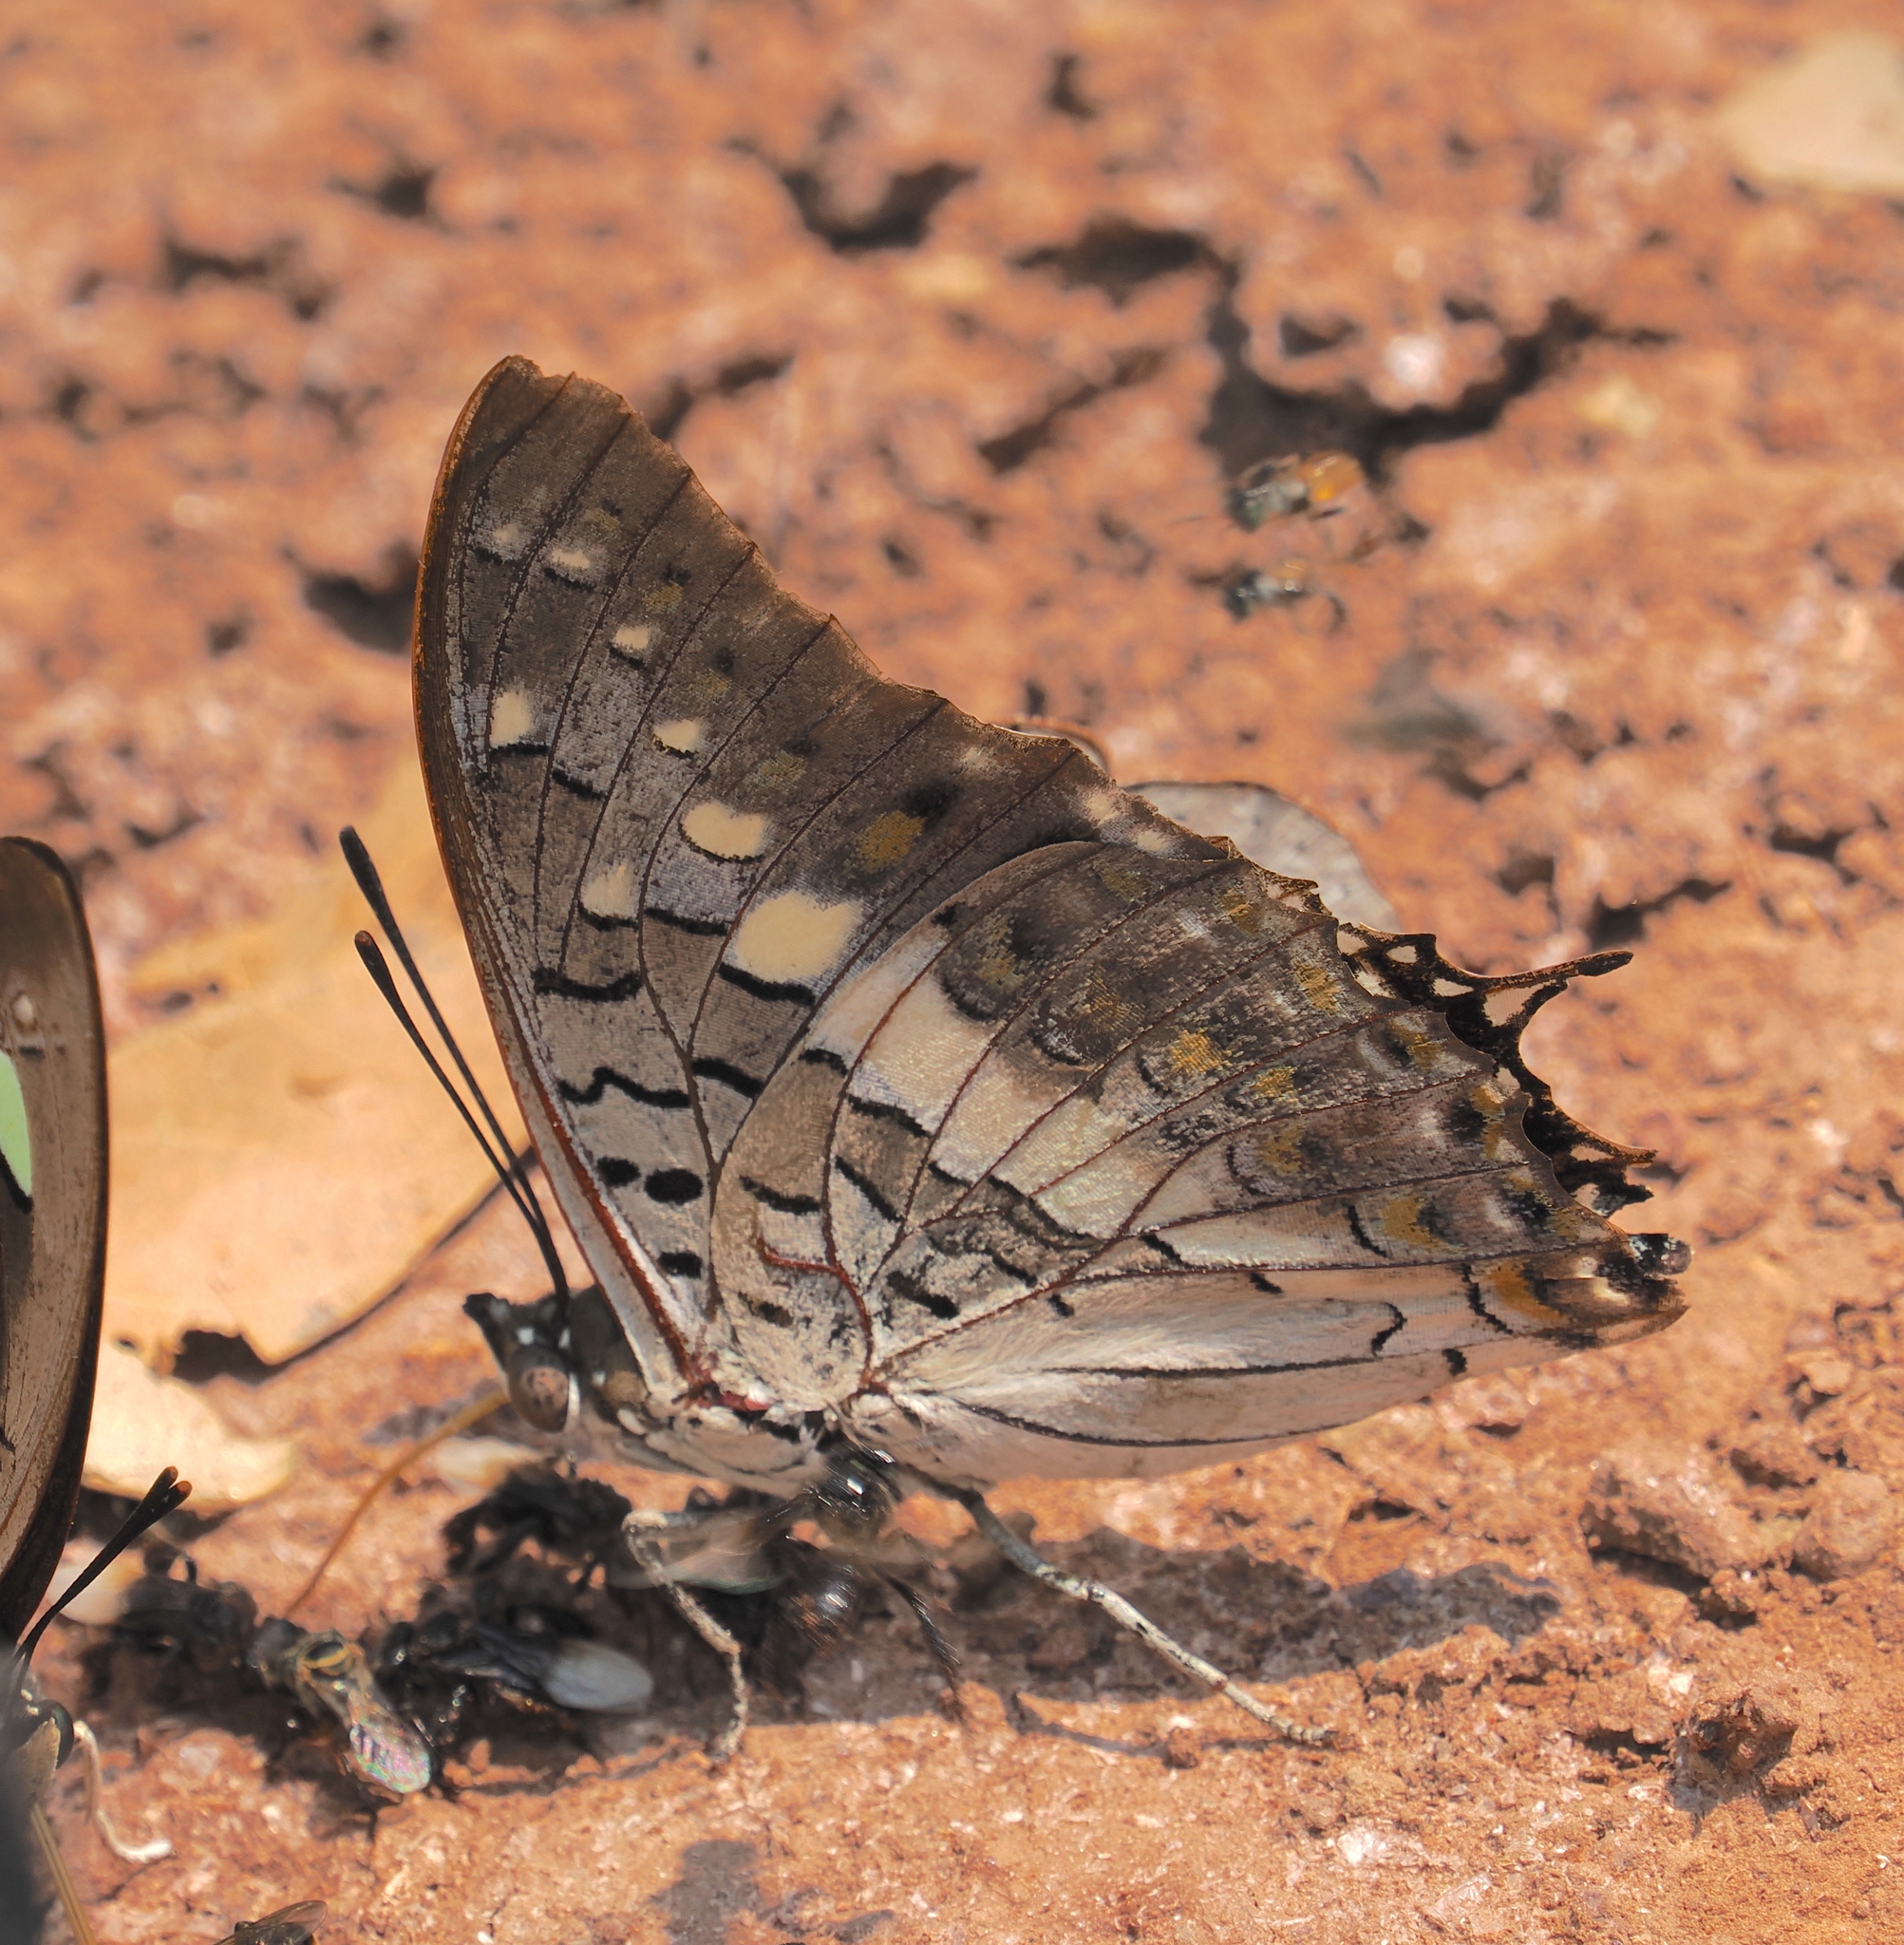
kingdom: Animalia
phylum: Arthropoda
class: Insecta
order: Lepidoptera
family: Nymphalidae
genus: Charaxes
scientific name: Charaxes solon
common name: Black rajah
